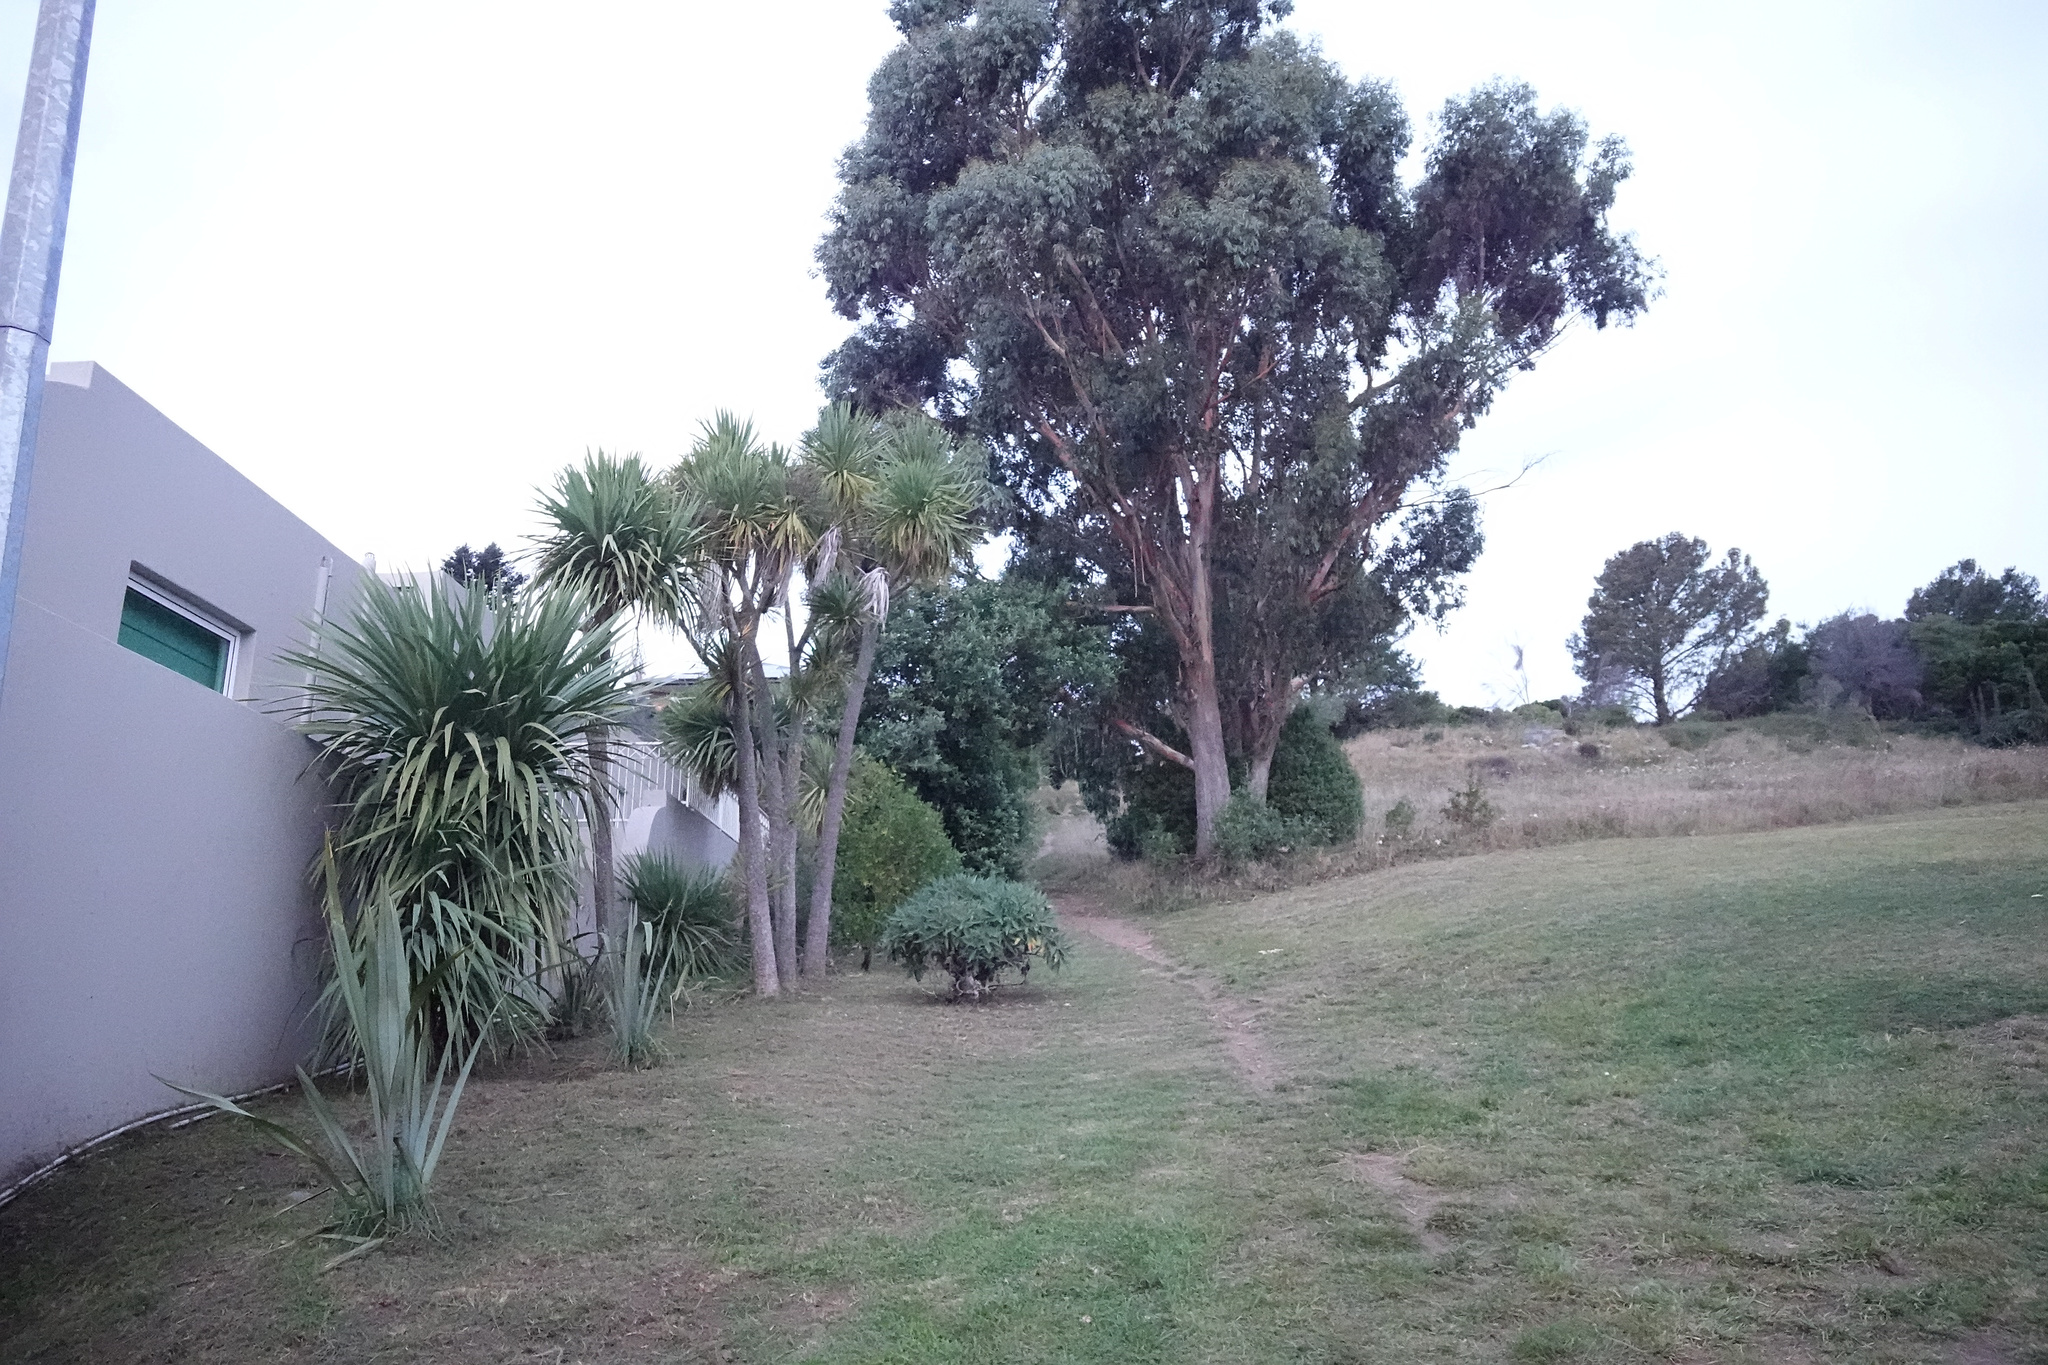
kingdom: Plantae
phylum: Tracheophyta
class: Liliopsida
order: Asparagales
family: Asparagaceae
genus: Cordyline
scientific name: Cordyline australis
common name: Cabbage-palm
